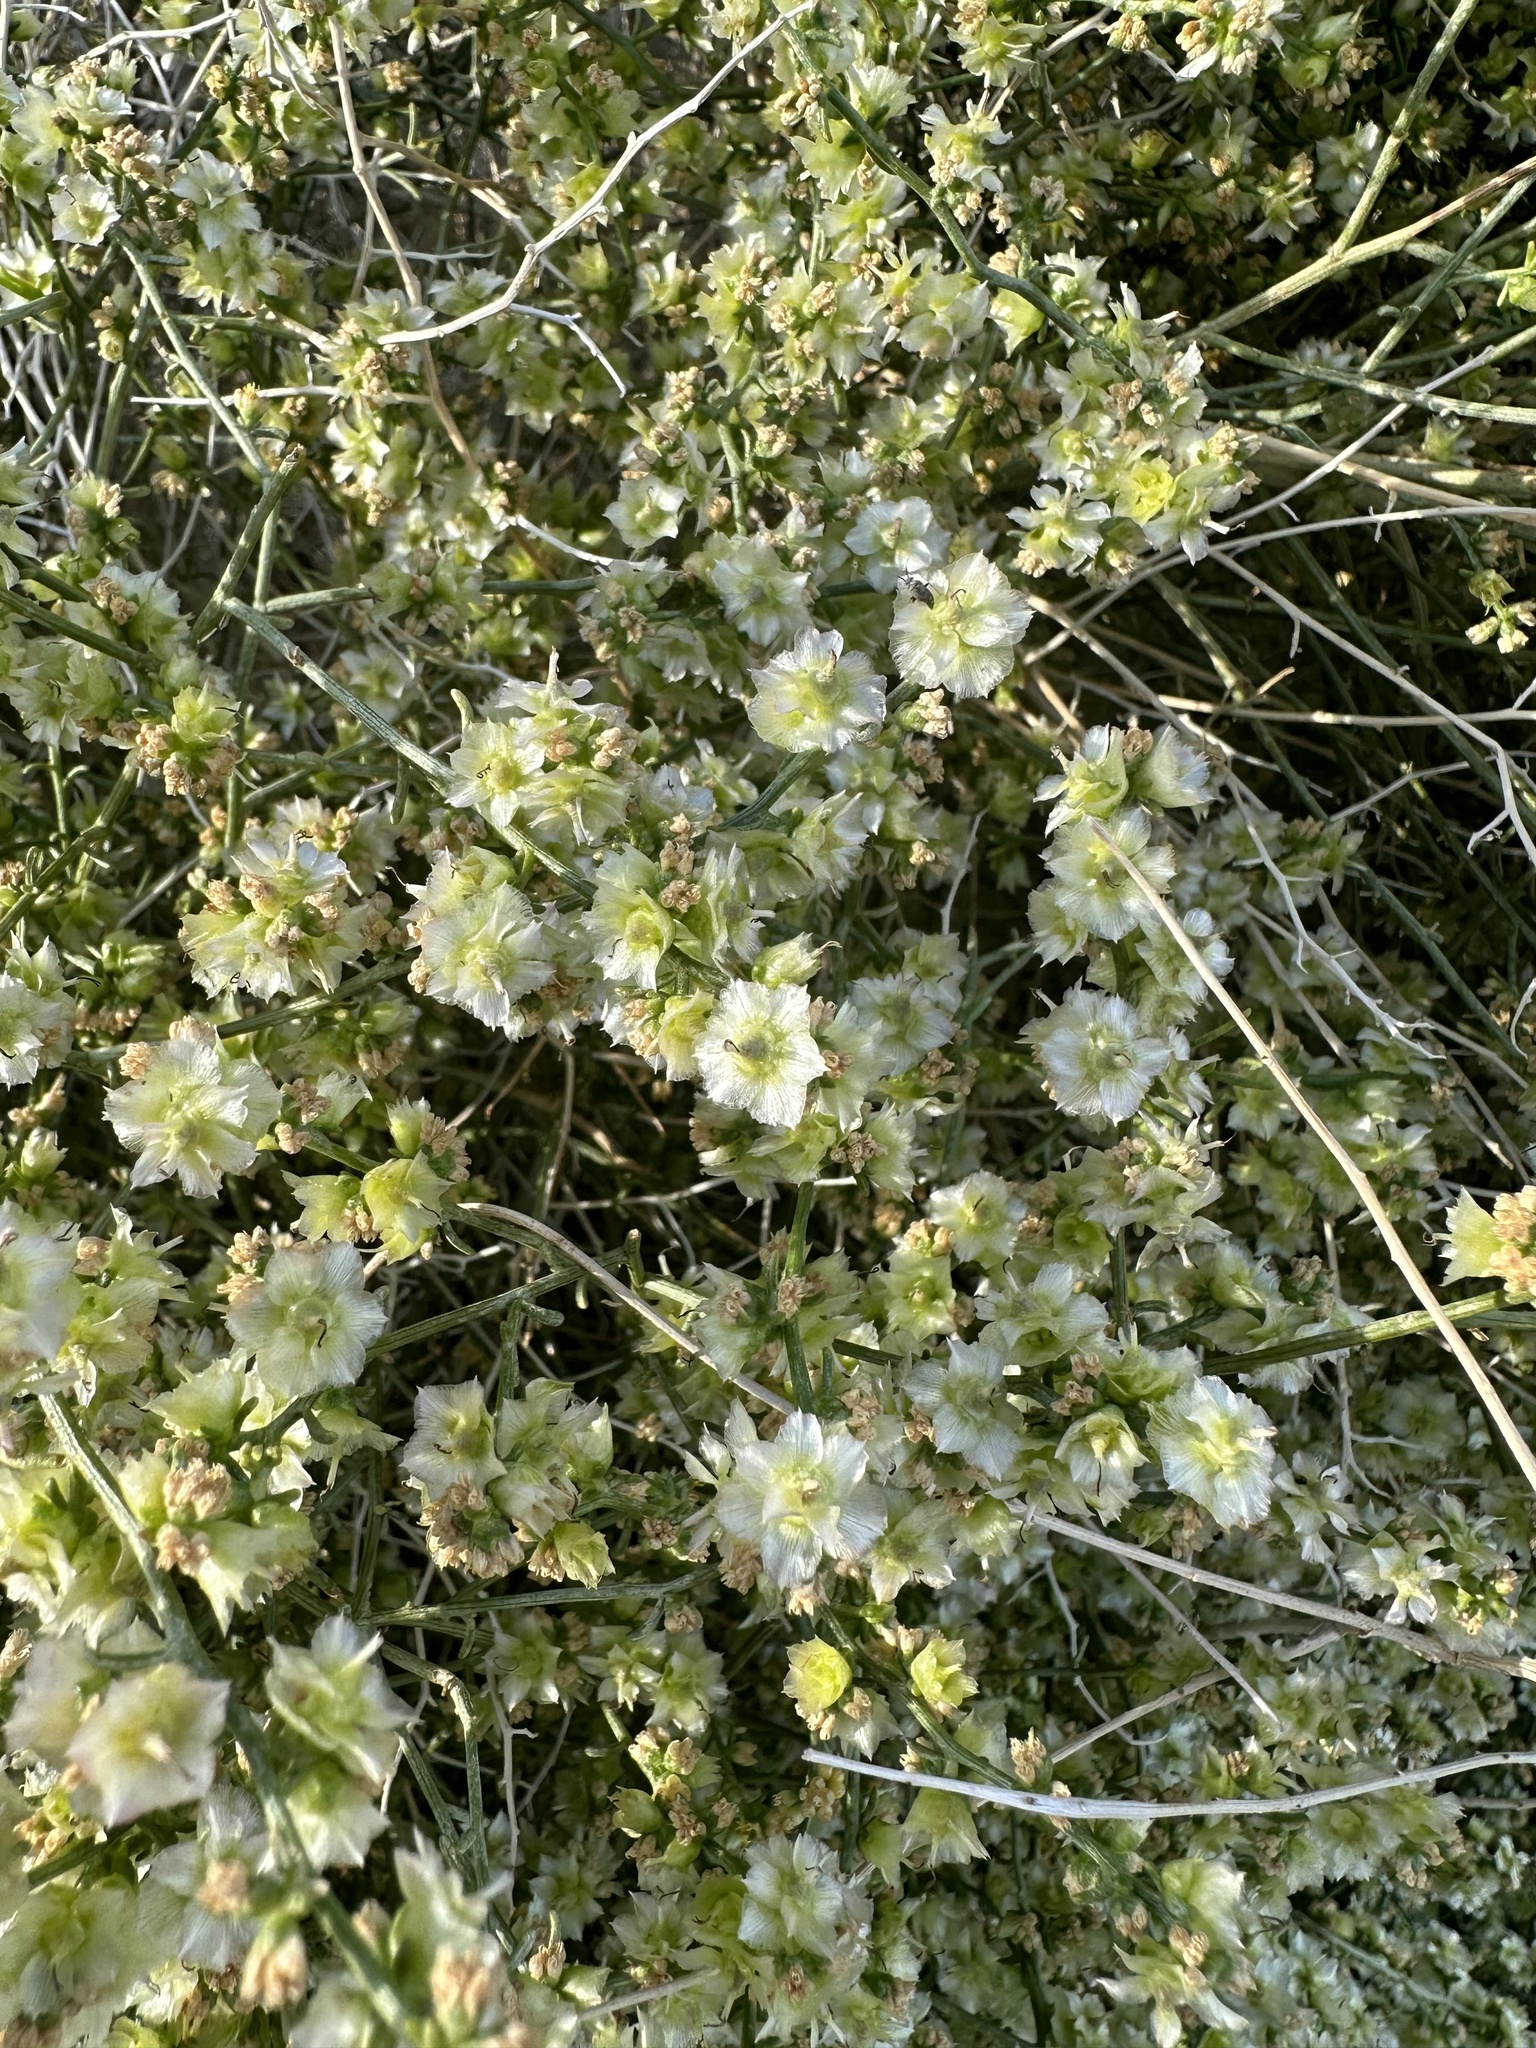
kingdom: Plantae
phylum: Tracheophyta
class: Magnoliopsida
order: Asterales
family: Asteraceae
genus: Ambrosia
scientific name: Ambrosia salsola
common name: Burrobrush
